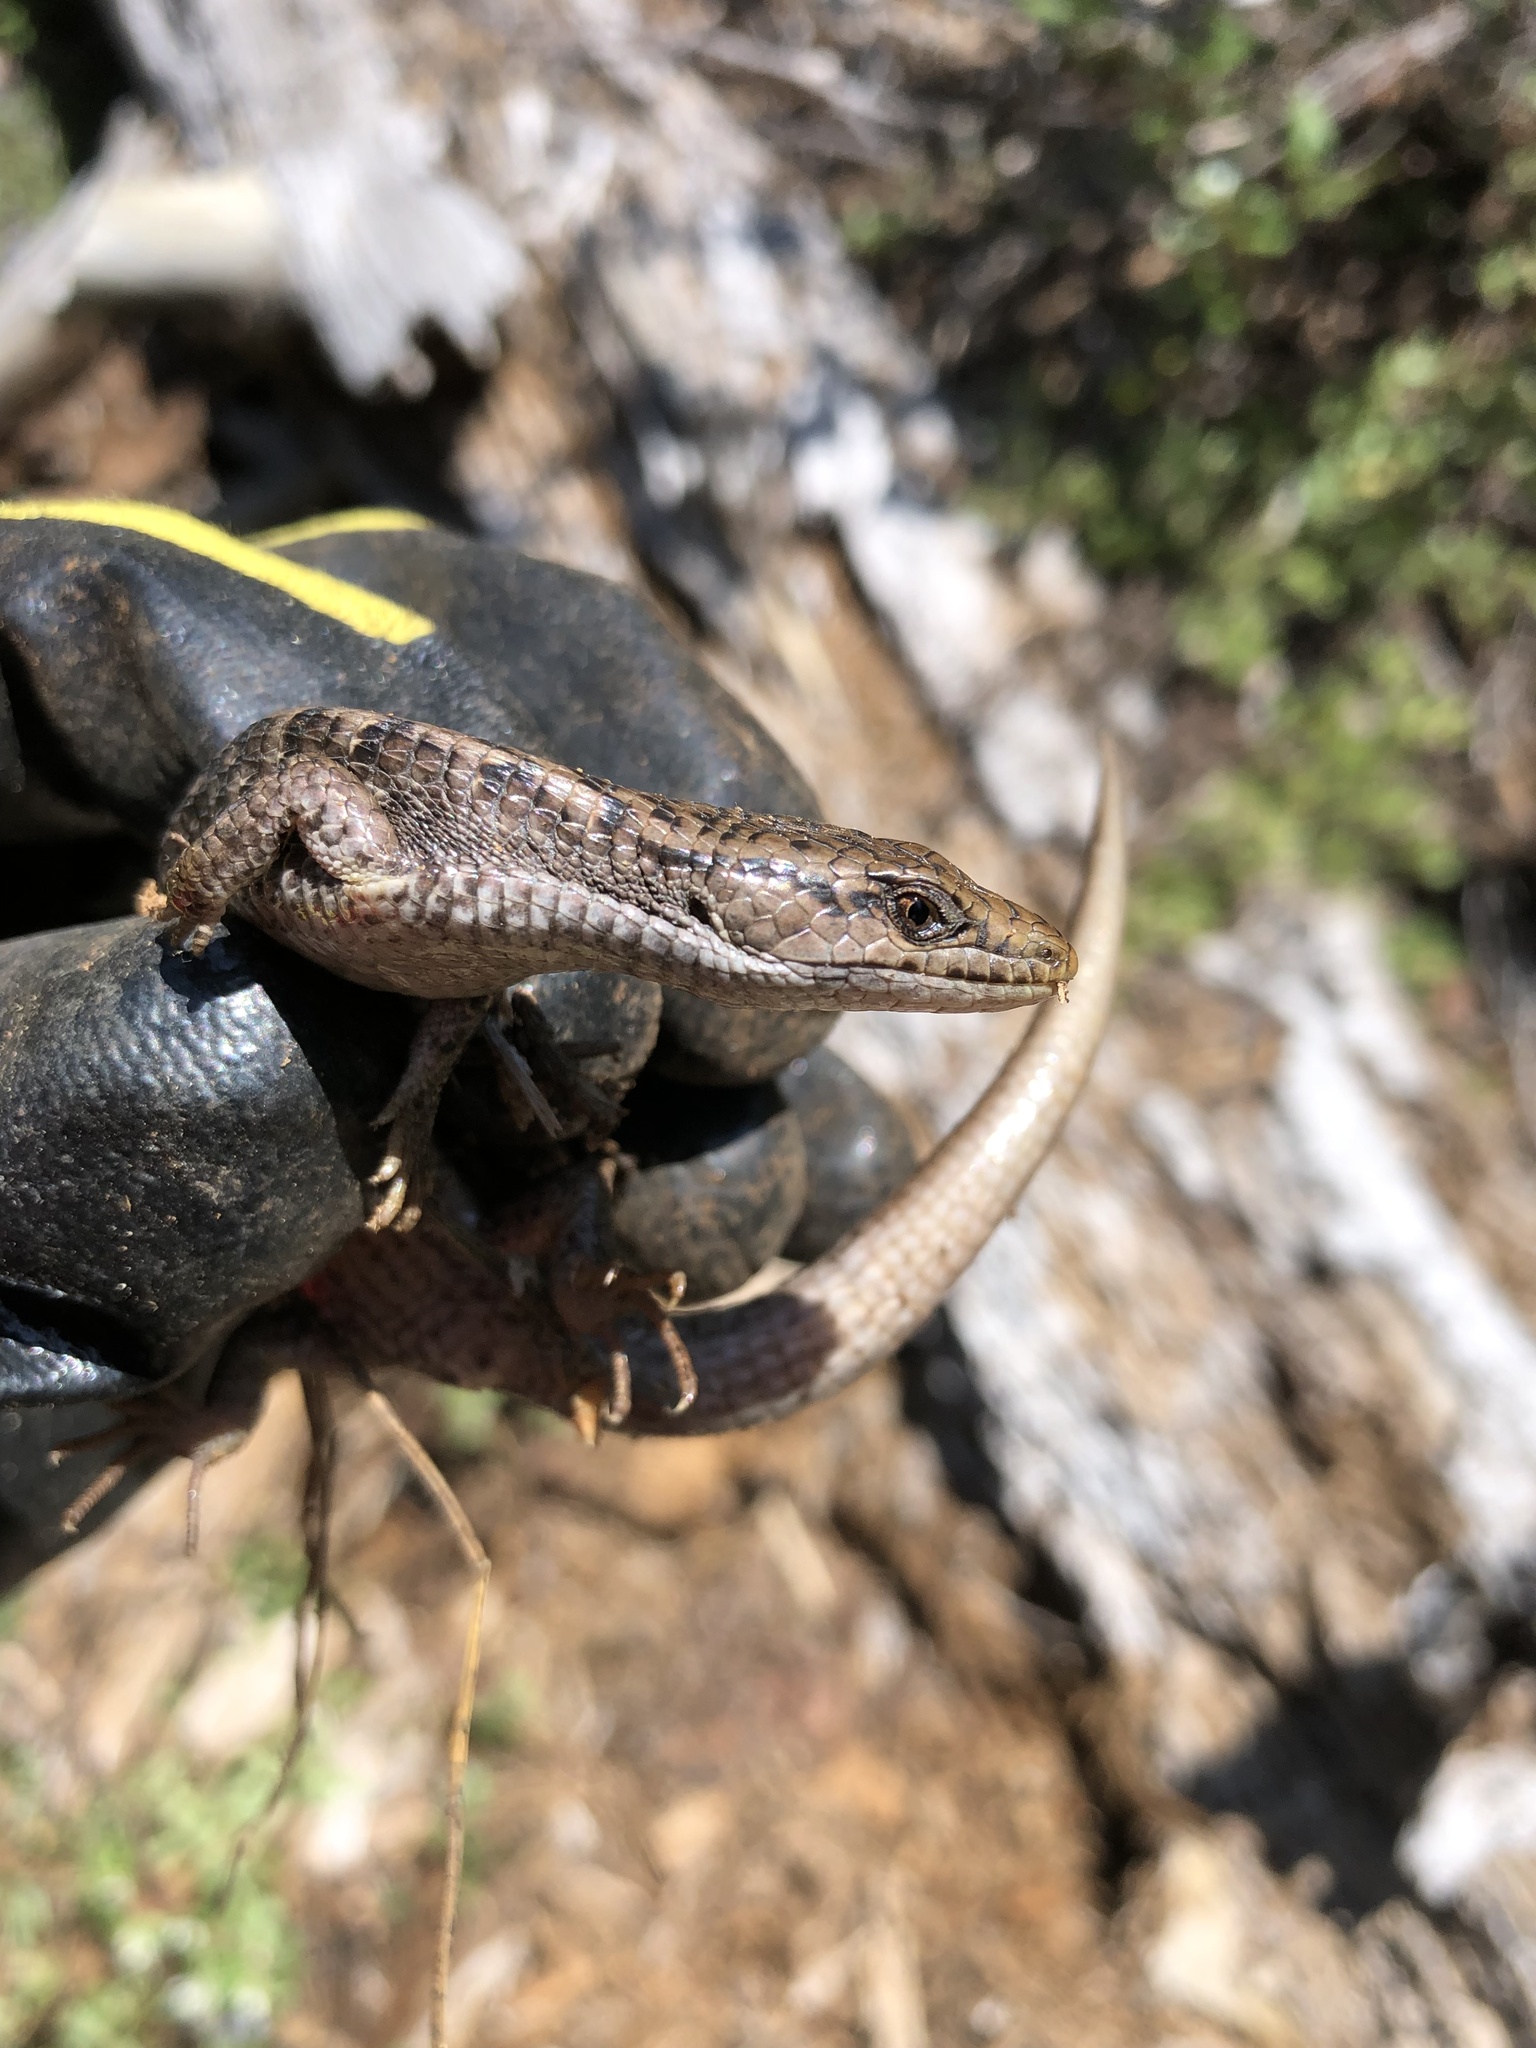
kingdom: Animalia
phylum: Chordata
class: Squamata
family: Anguidae
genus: Elgaria
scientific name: Elgaria coerulea
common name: Northern alligator lizard
